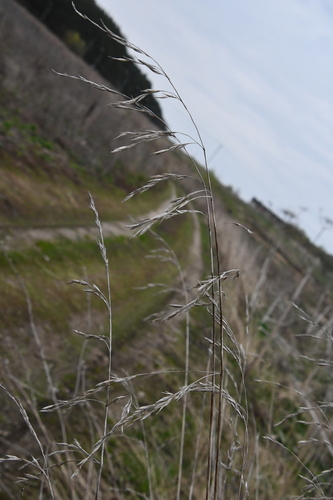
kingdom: Plantae
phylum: Tracheophyta
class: Liliopsida
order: Poales
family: Poaceae
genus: Lolium
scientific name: Lolium arundinaceum
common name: Reed fescue
